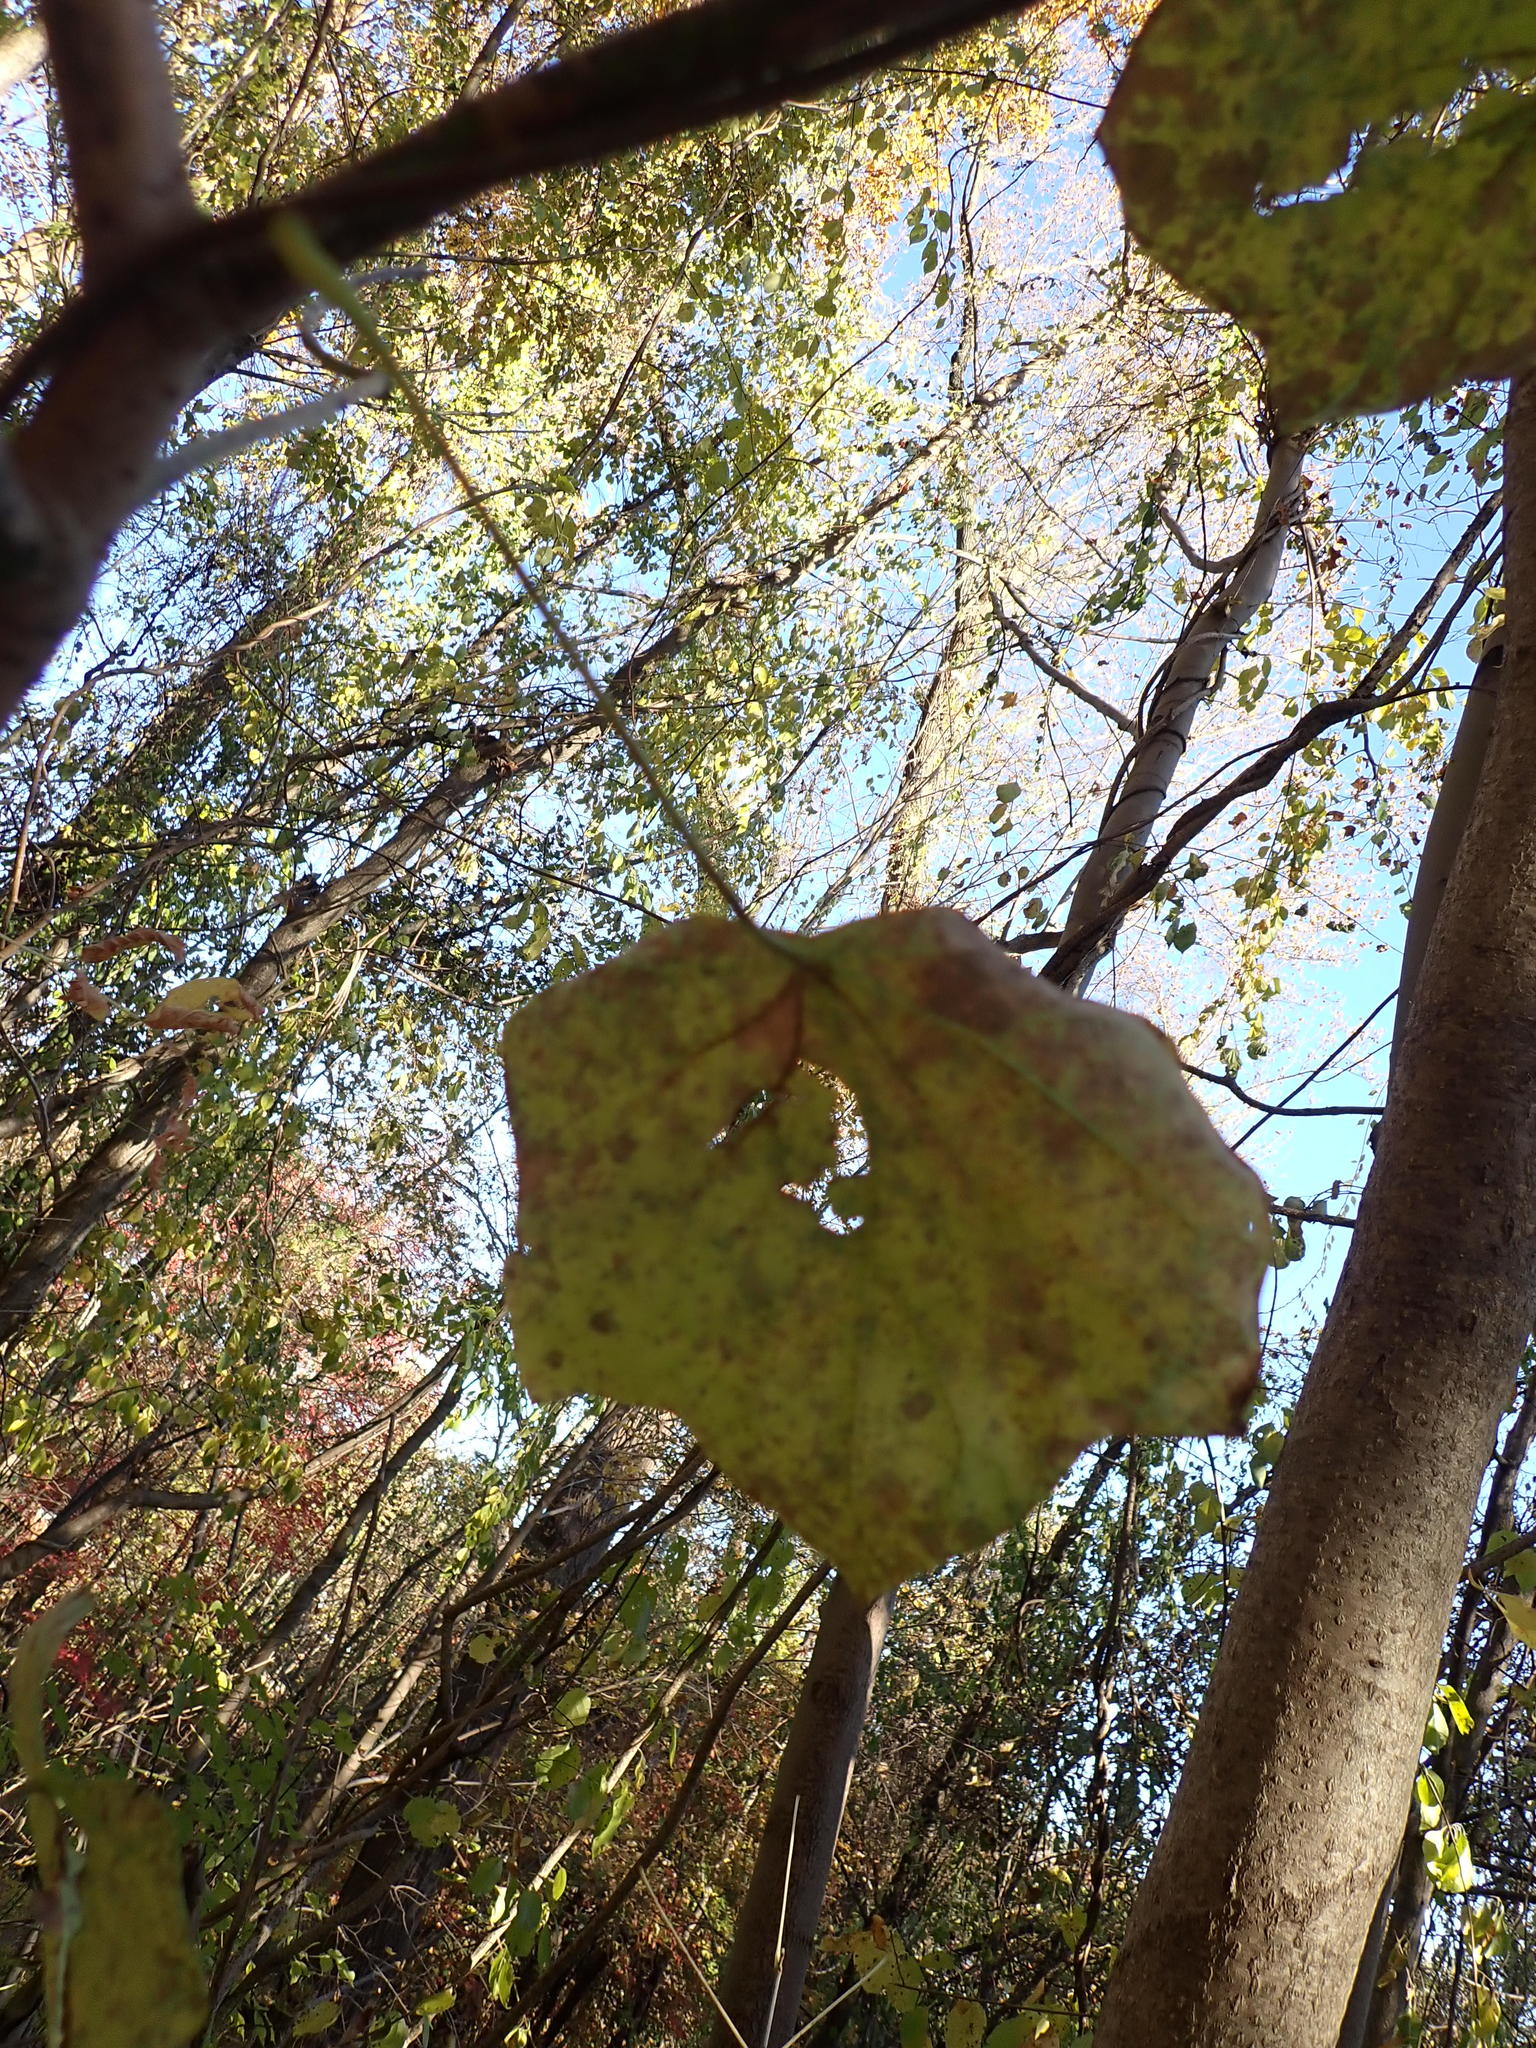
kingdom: Plantae
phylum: Tracheophyta
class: Magnoliopsida
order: Ranunculales
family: Menispermaceae
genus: Menispermum
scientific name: Menispermum canadense
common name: Moonseed
